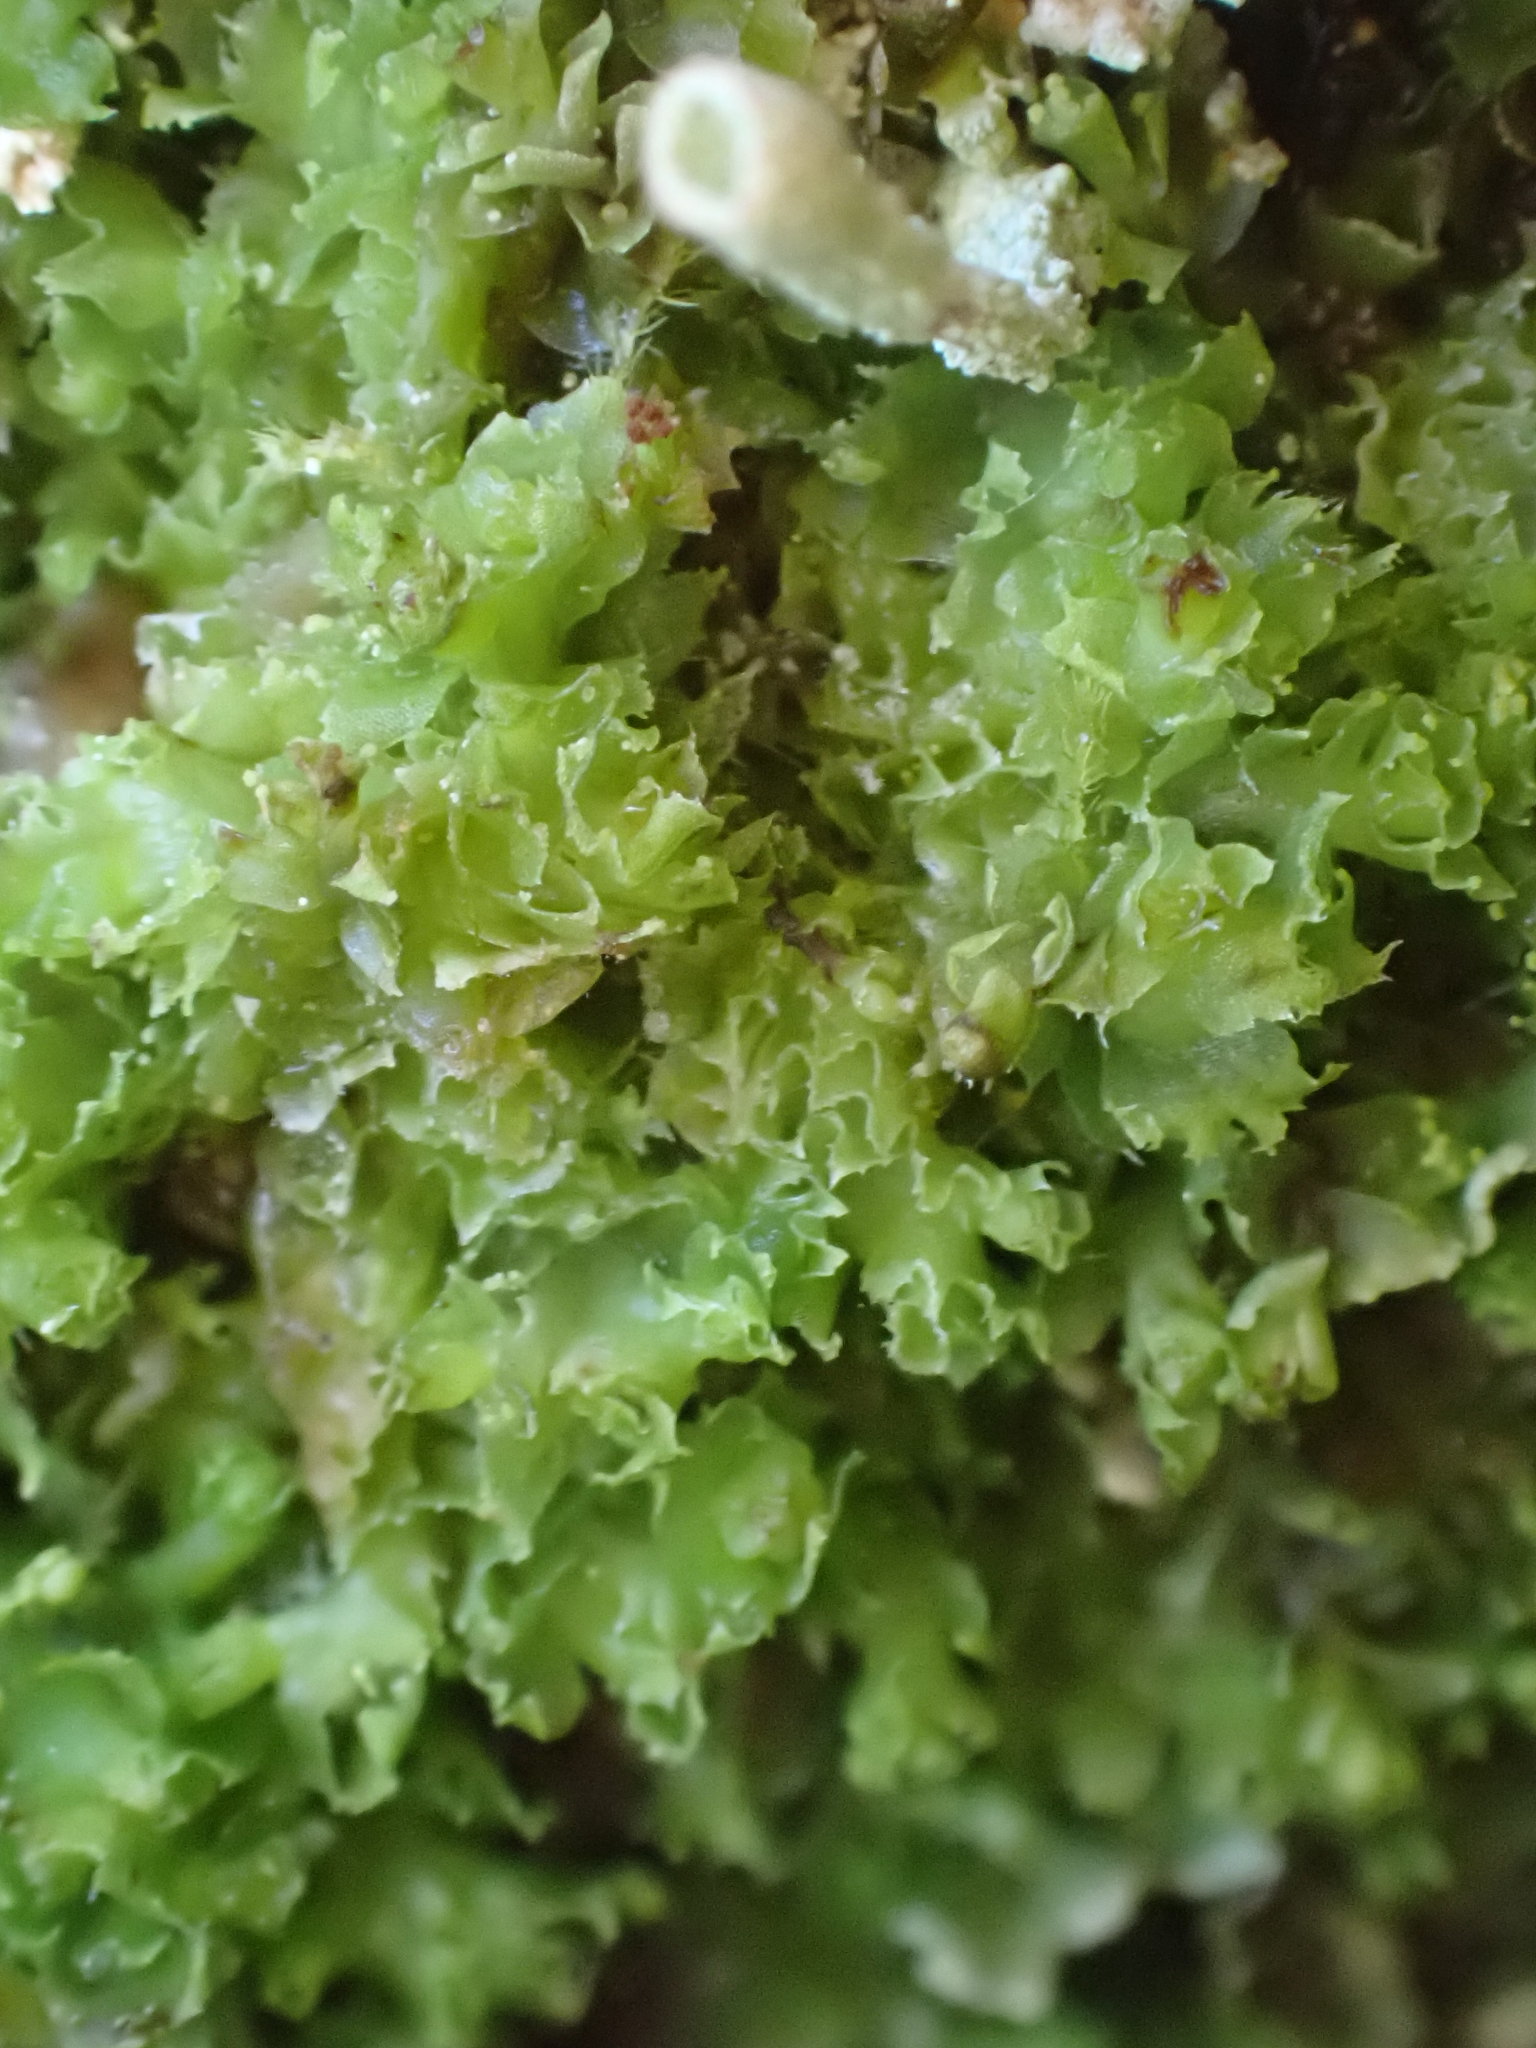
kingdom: Plantae
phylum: Marchantiophyta
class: Jungermanniopsida
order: Jungermanniales
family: Scapaniaceae
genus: Schistochilopsis
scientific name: Schistochilopsis incisa
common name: Jagged notchwort
